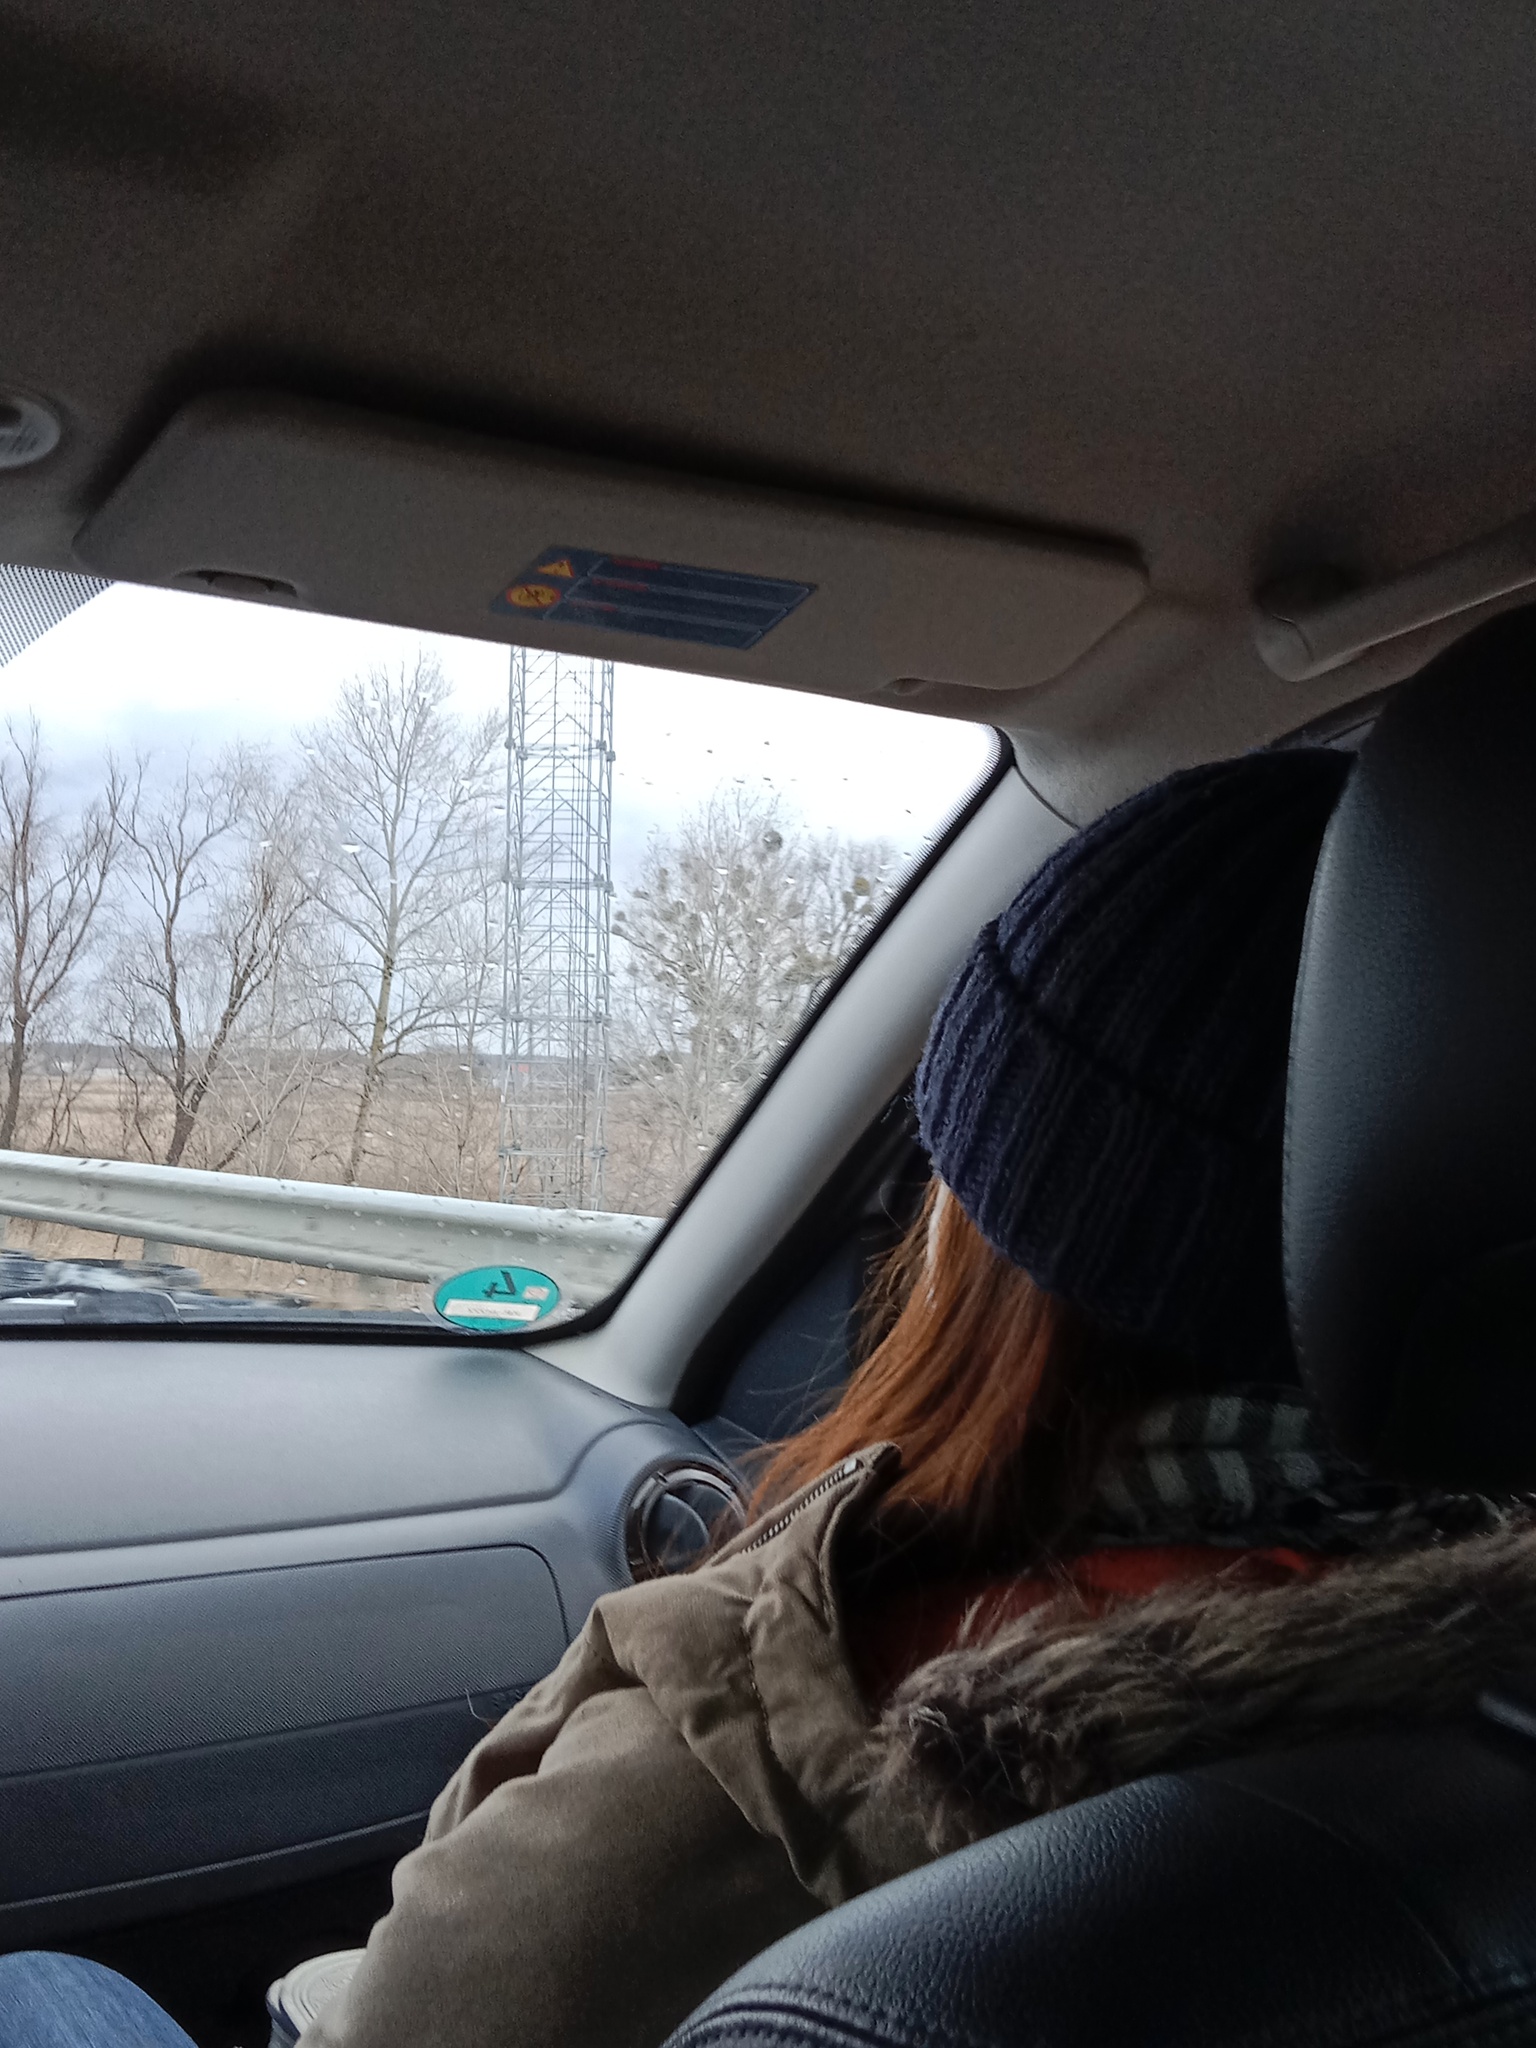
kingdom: Plantae
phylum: Tracheophyta
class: Magnoliopsida
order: Santalales
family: Viscaceae
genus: Viscum
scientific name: Viscum album
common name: Mistletoe
